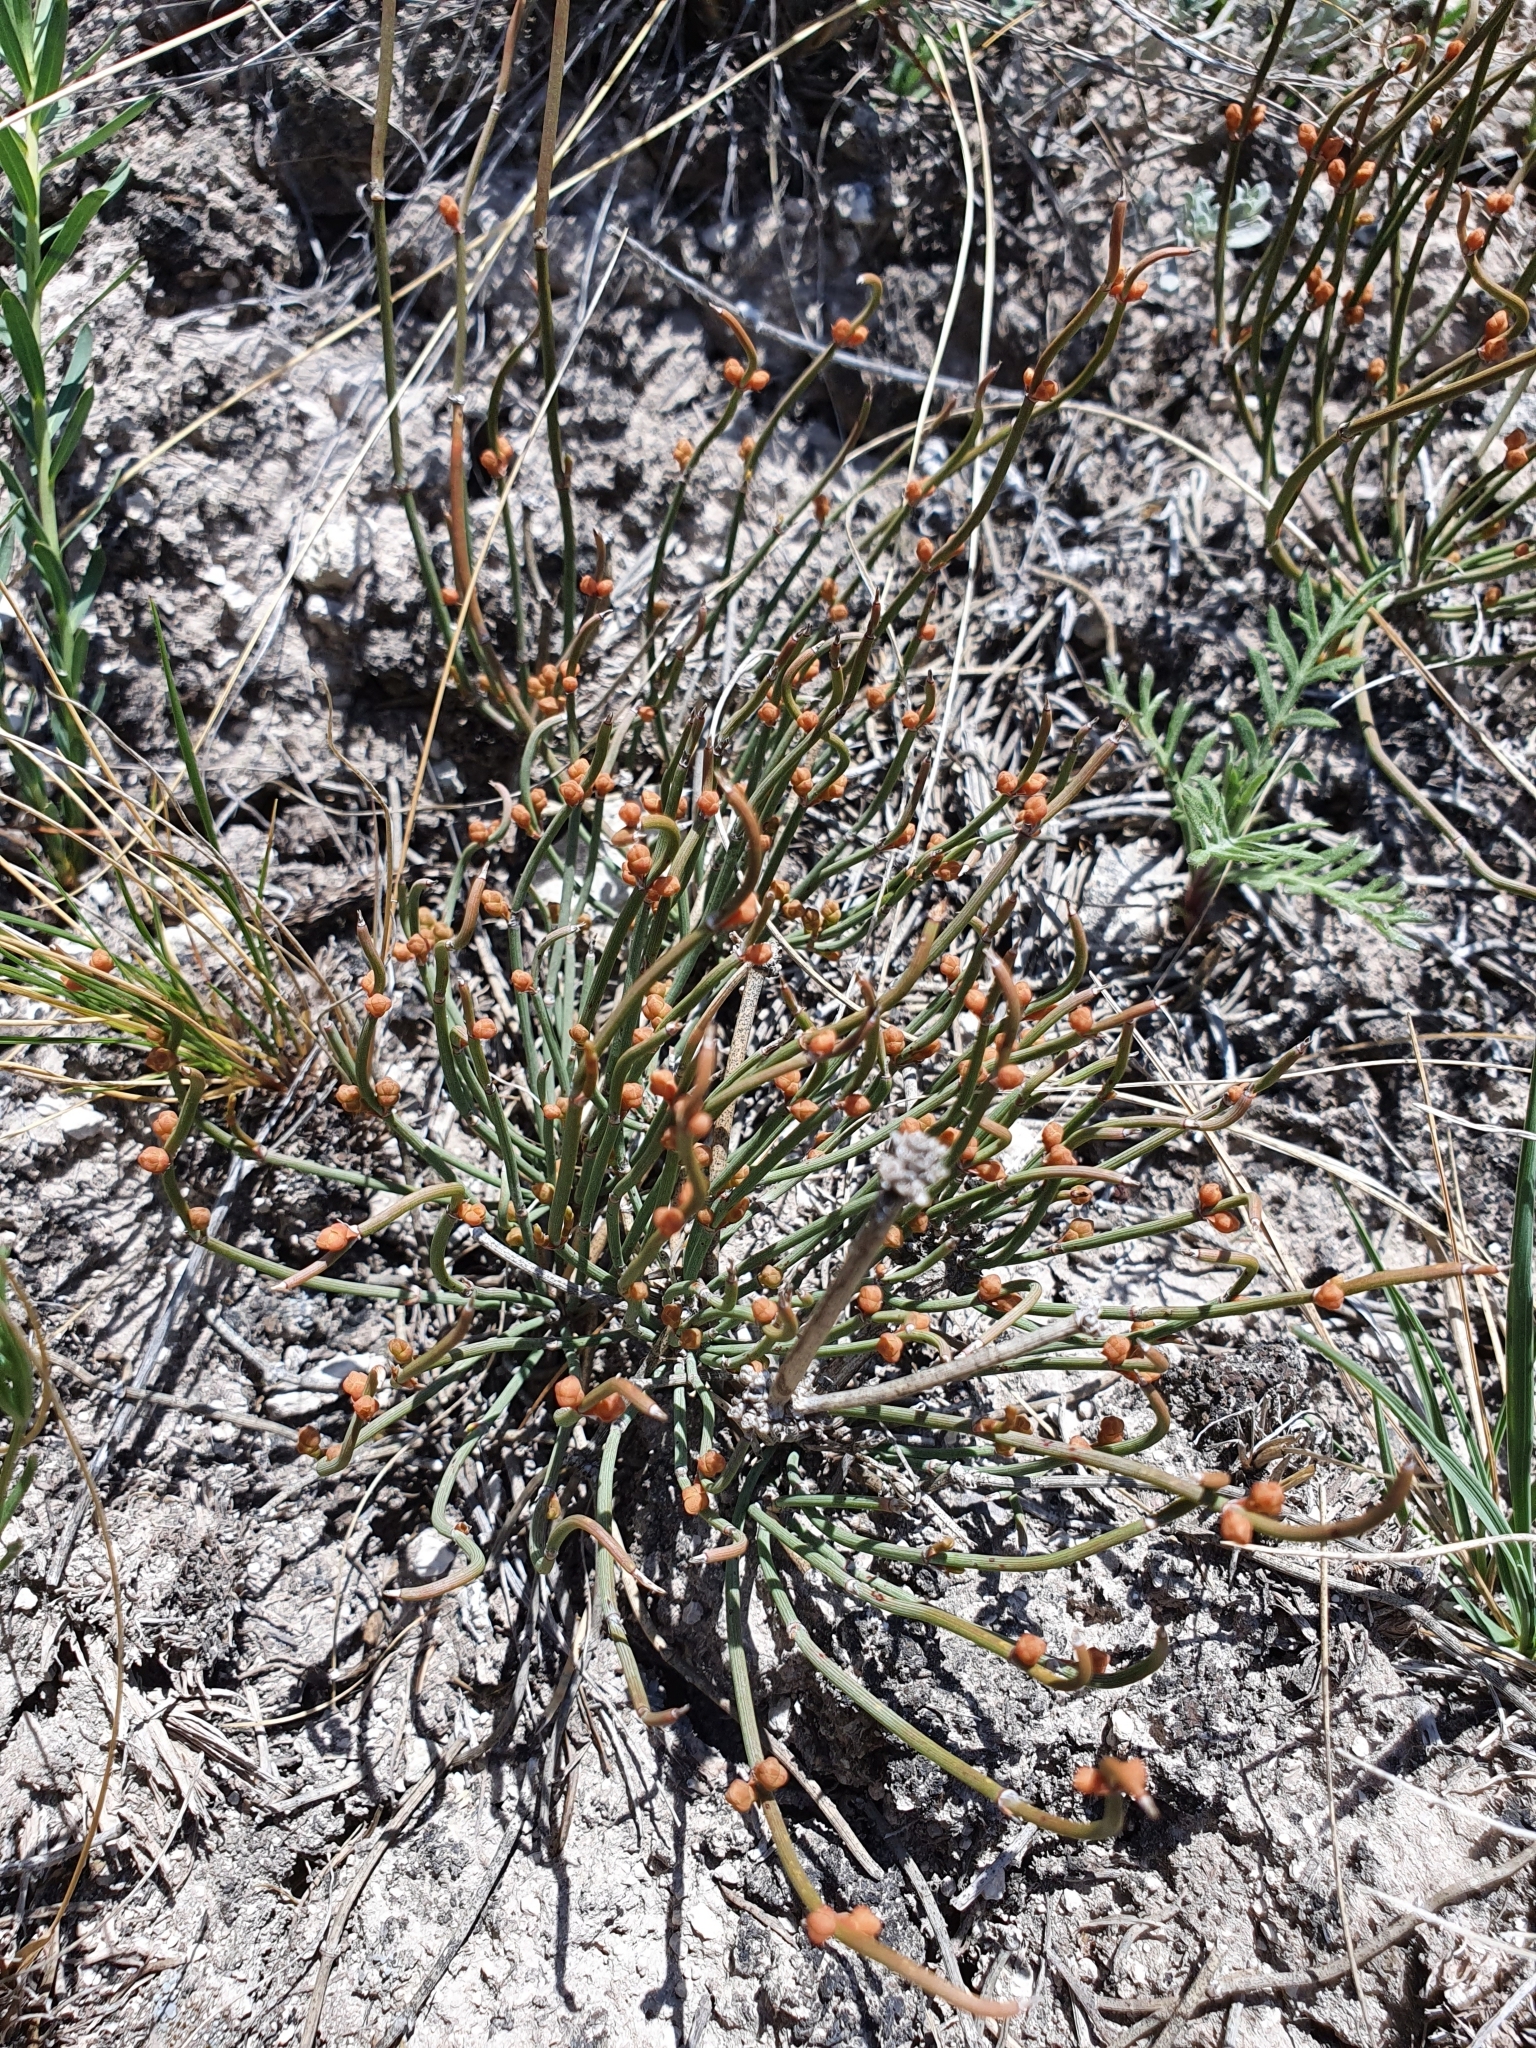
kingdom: Plantae
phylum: Tracheophyta
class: Gnetopsida
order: Ephedrales
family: Ephedraceae
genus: Ephedra
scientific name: Ephedra distachya
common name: Sea grape
